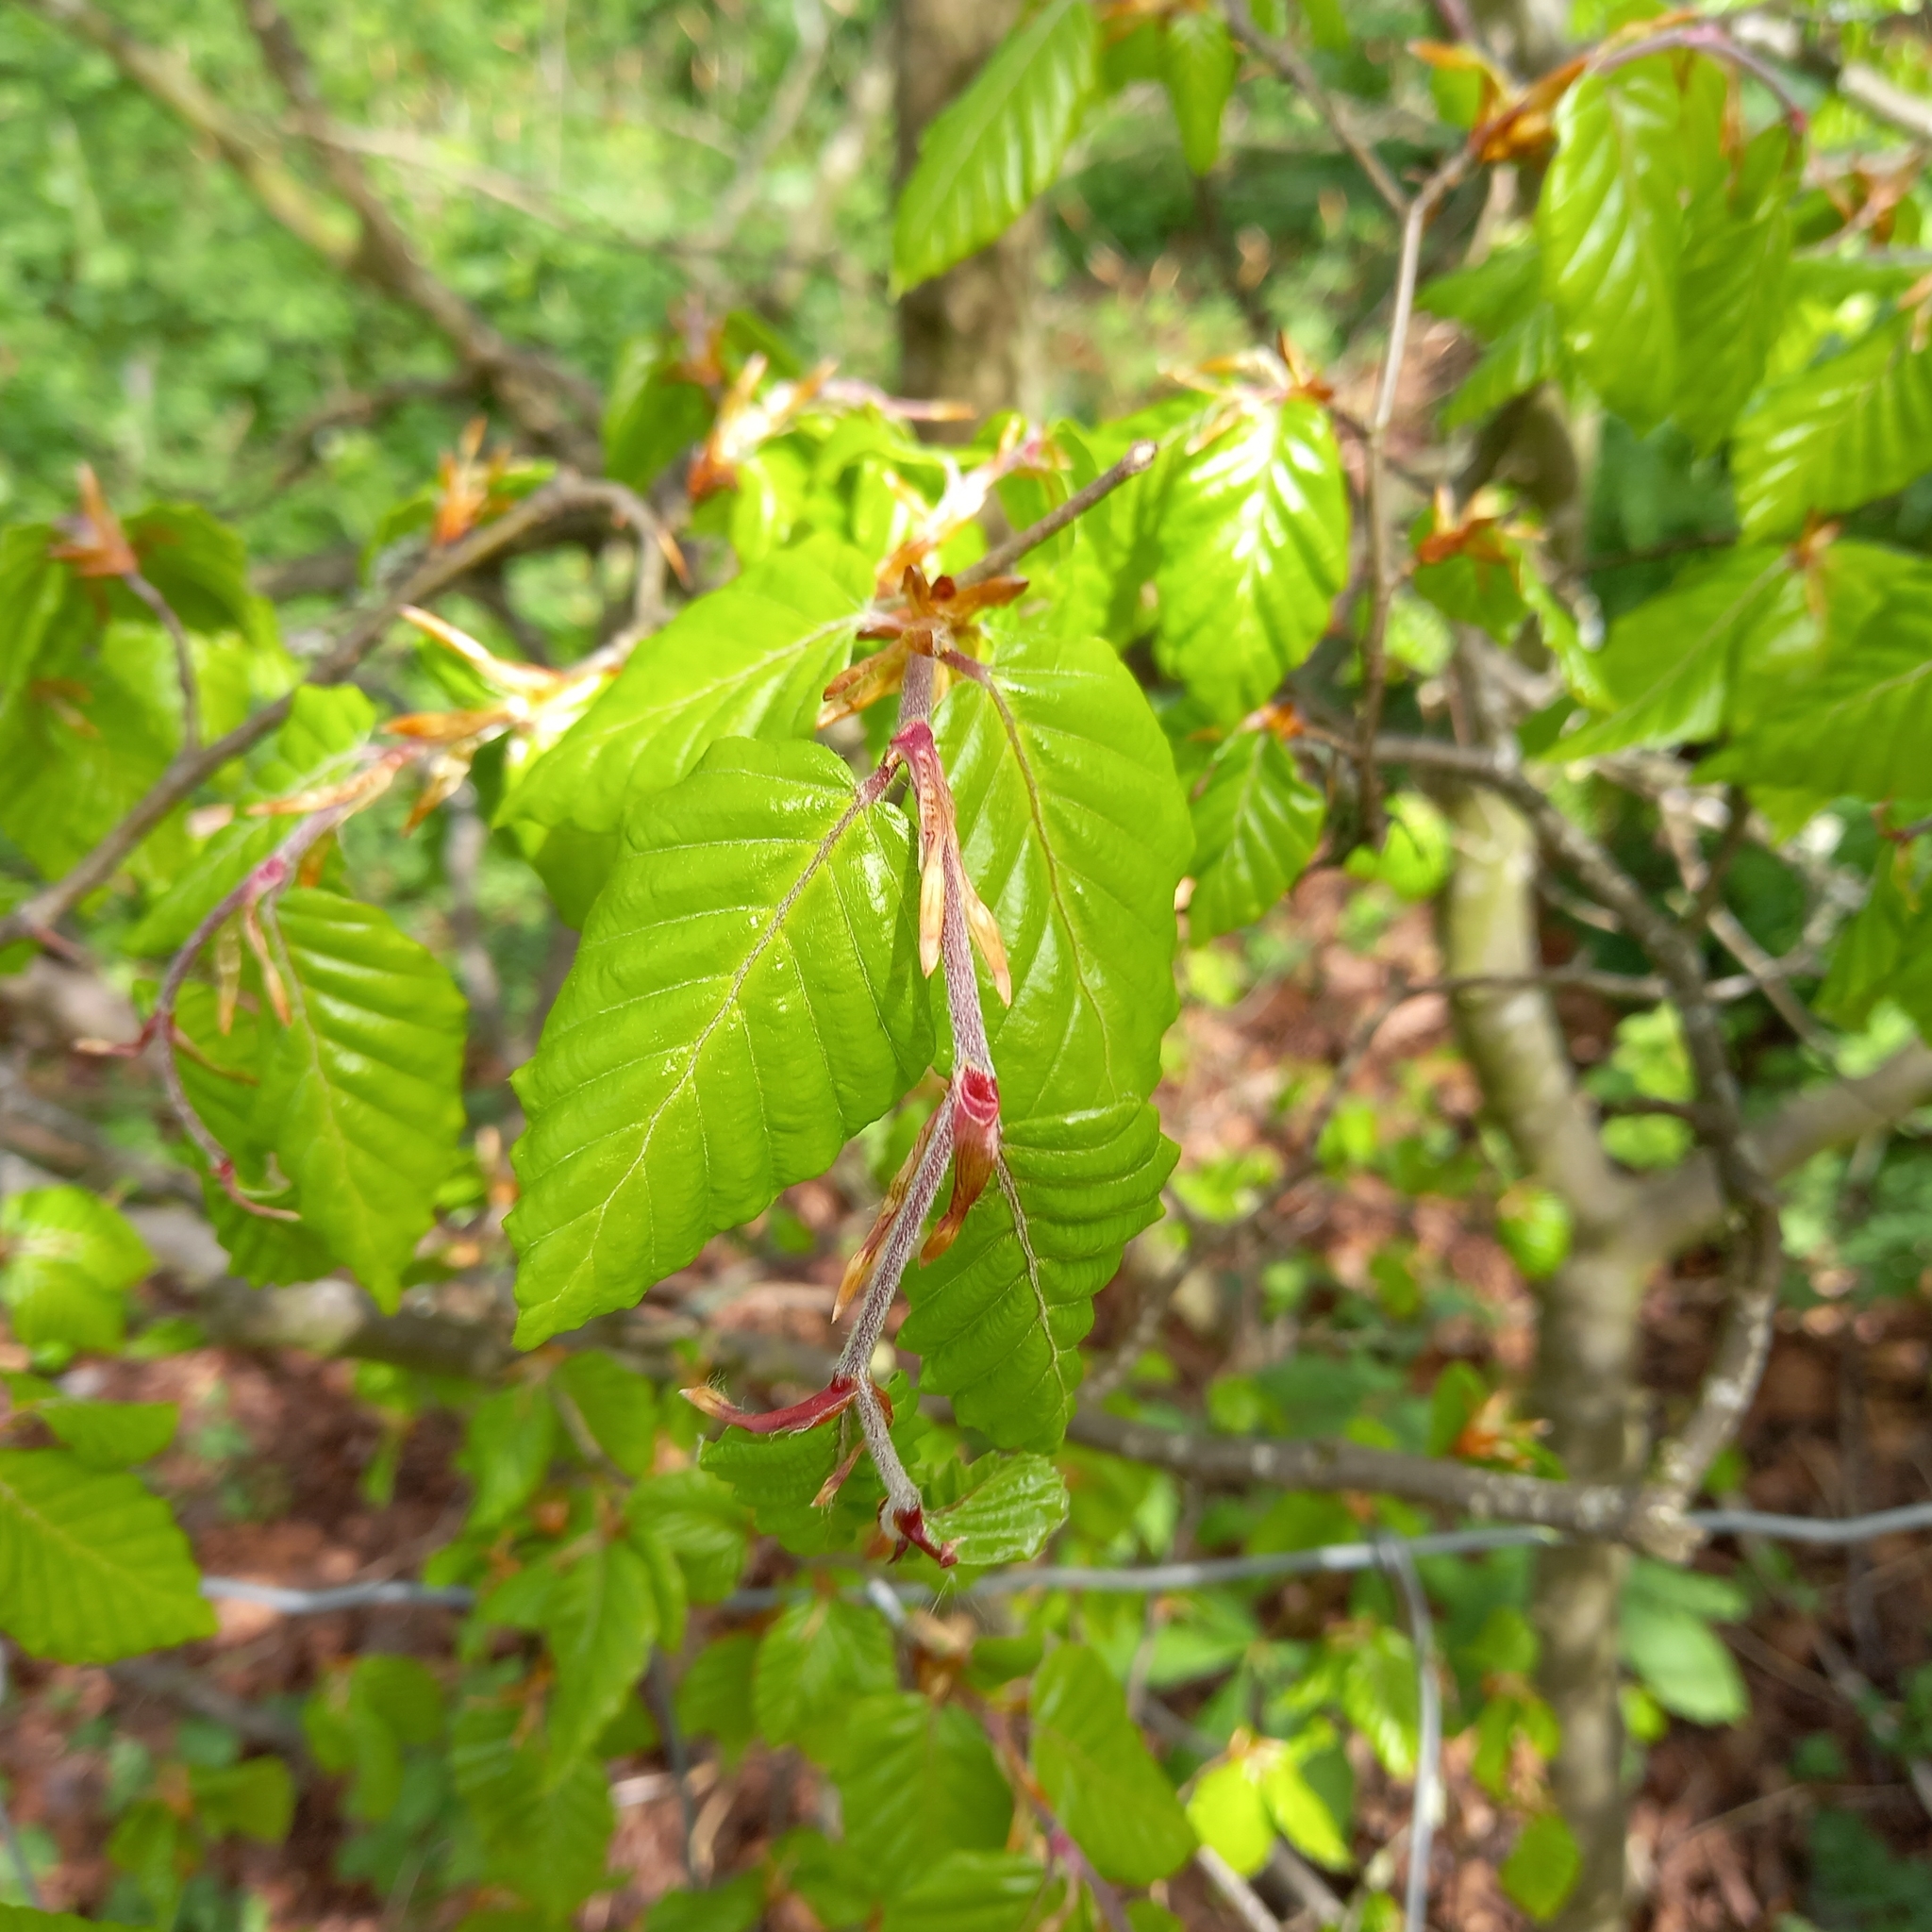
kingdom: Plantae
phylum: Tracheophyta
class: Magnoliopsida
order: Fagales
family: Fagaceae
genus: Fagus
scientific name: Fagus sylvatica
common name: Beech
